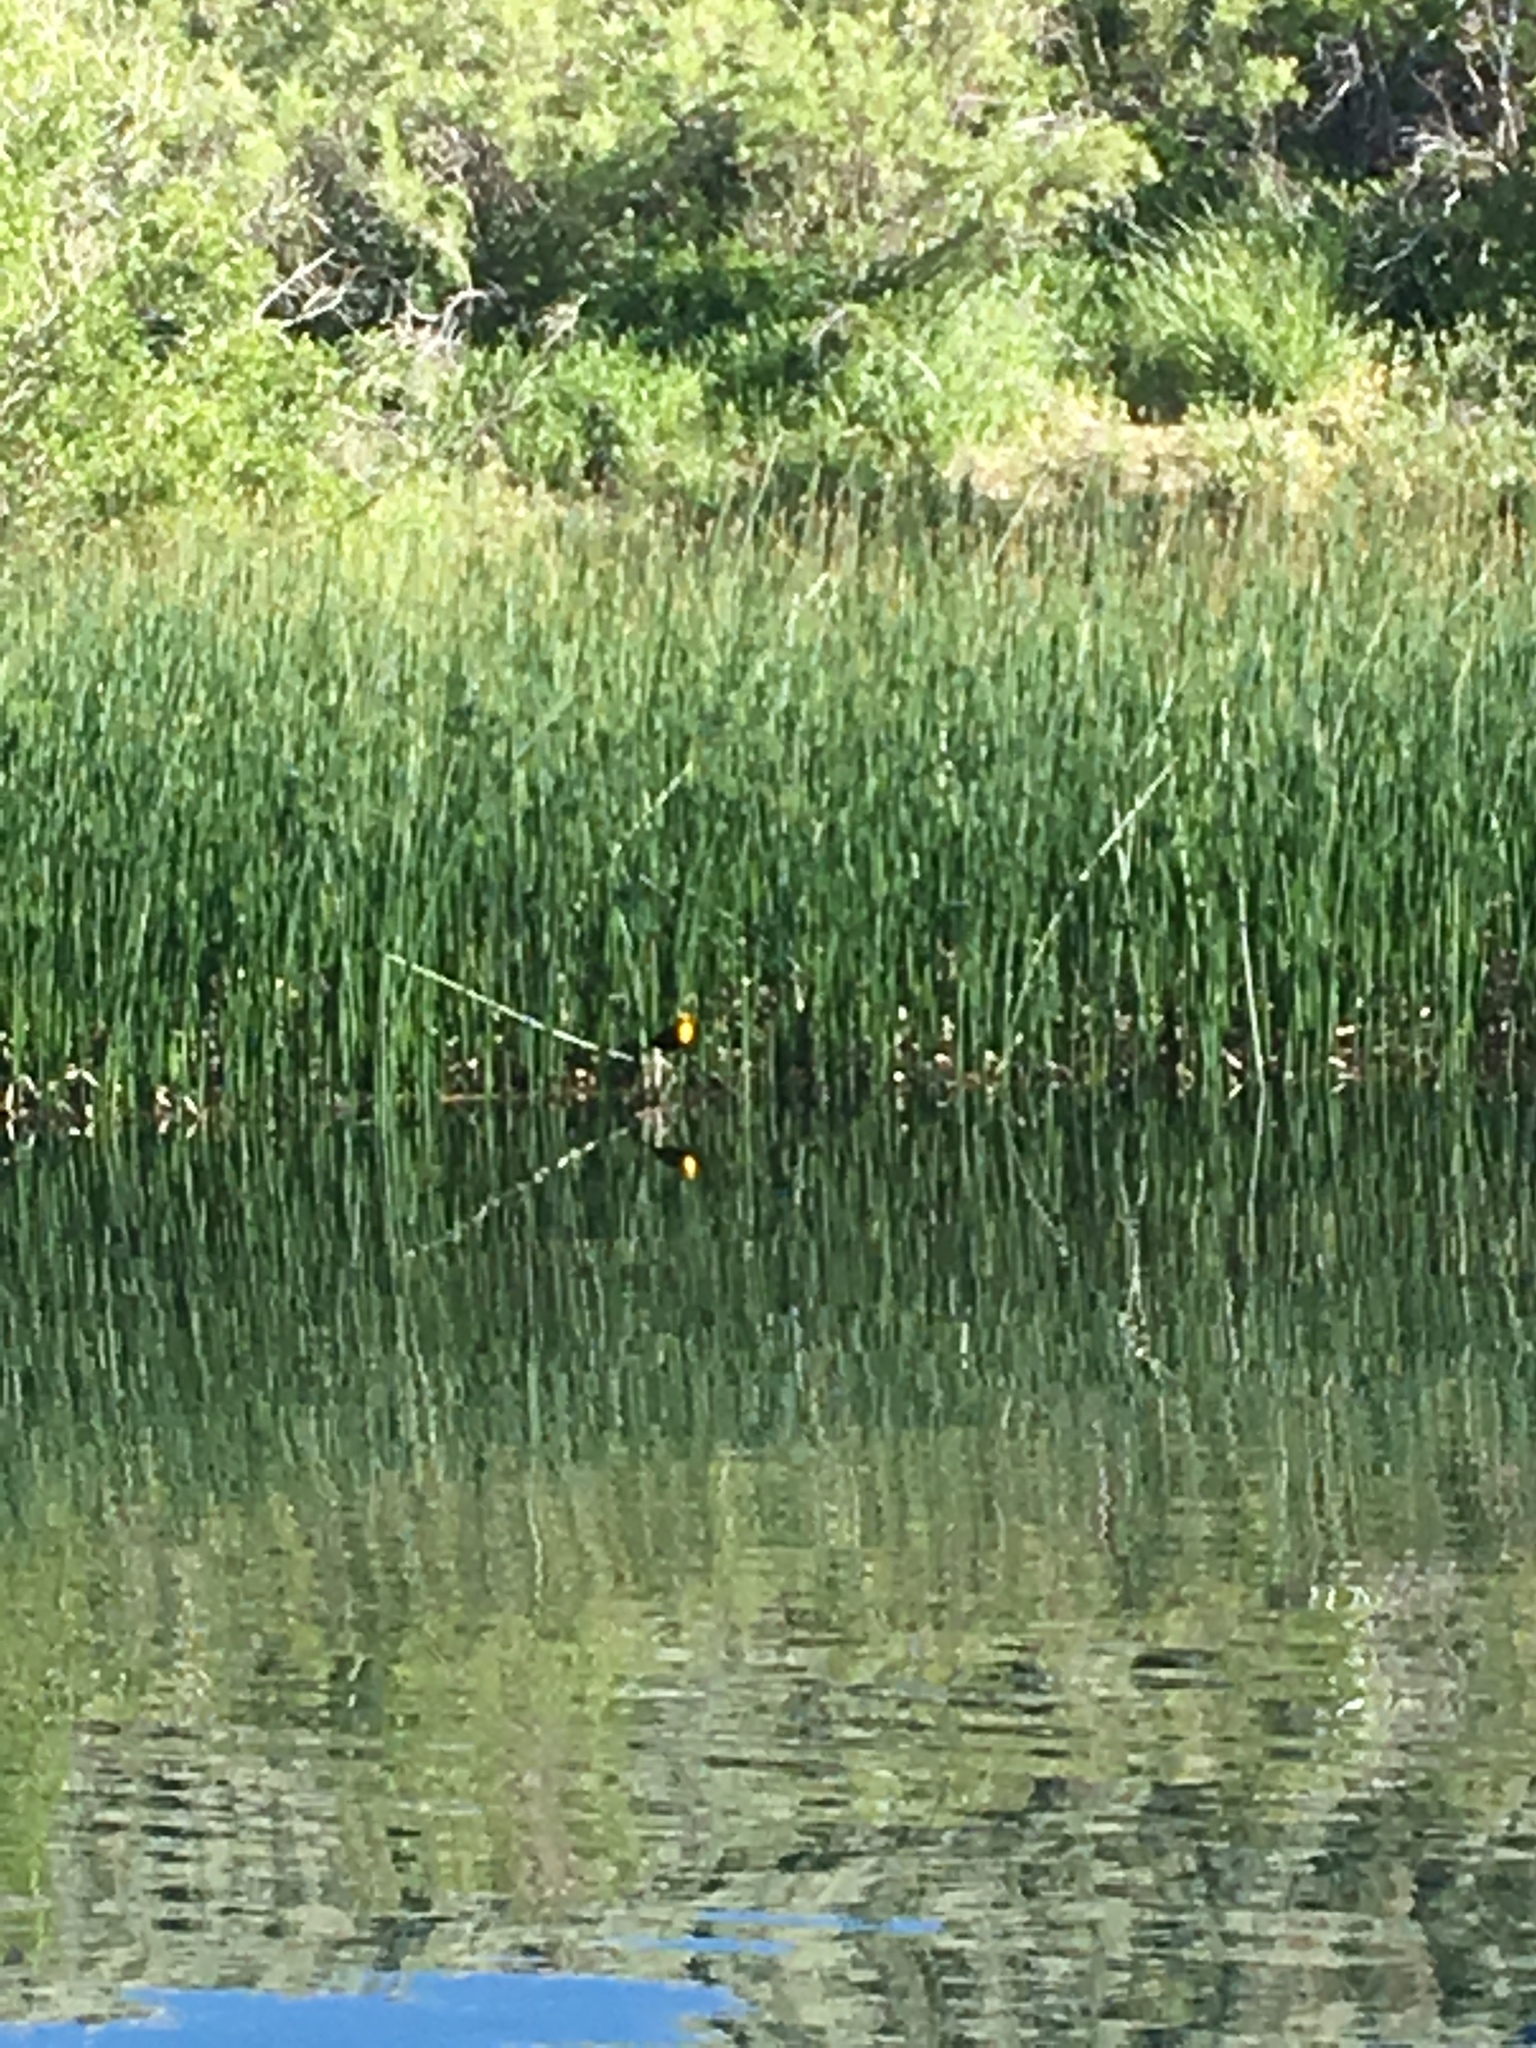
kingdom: Animalia
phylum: Chordata
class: Aves
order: Passeriformes
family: Icteridae
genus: Xanthocephalus
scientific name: Xanthocephalus xanthocephalus
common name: Yellow-headed blackbird
